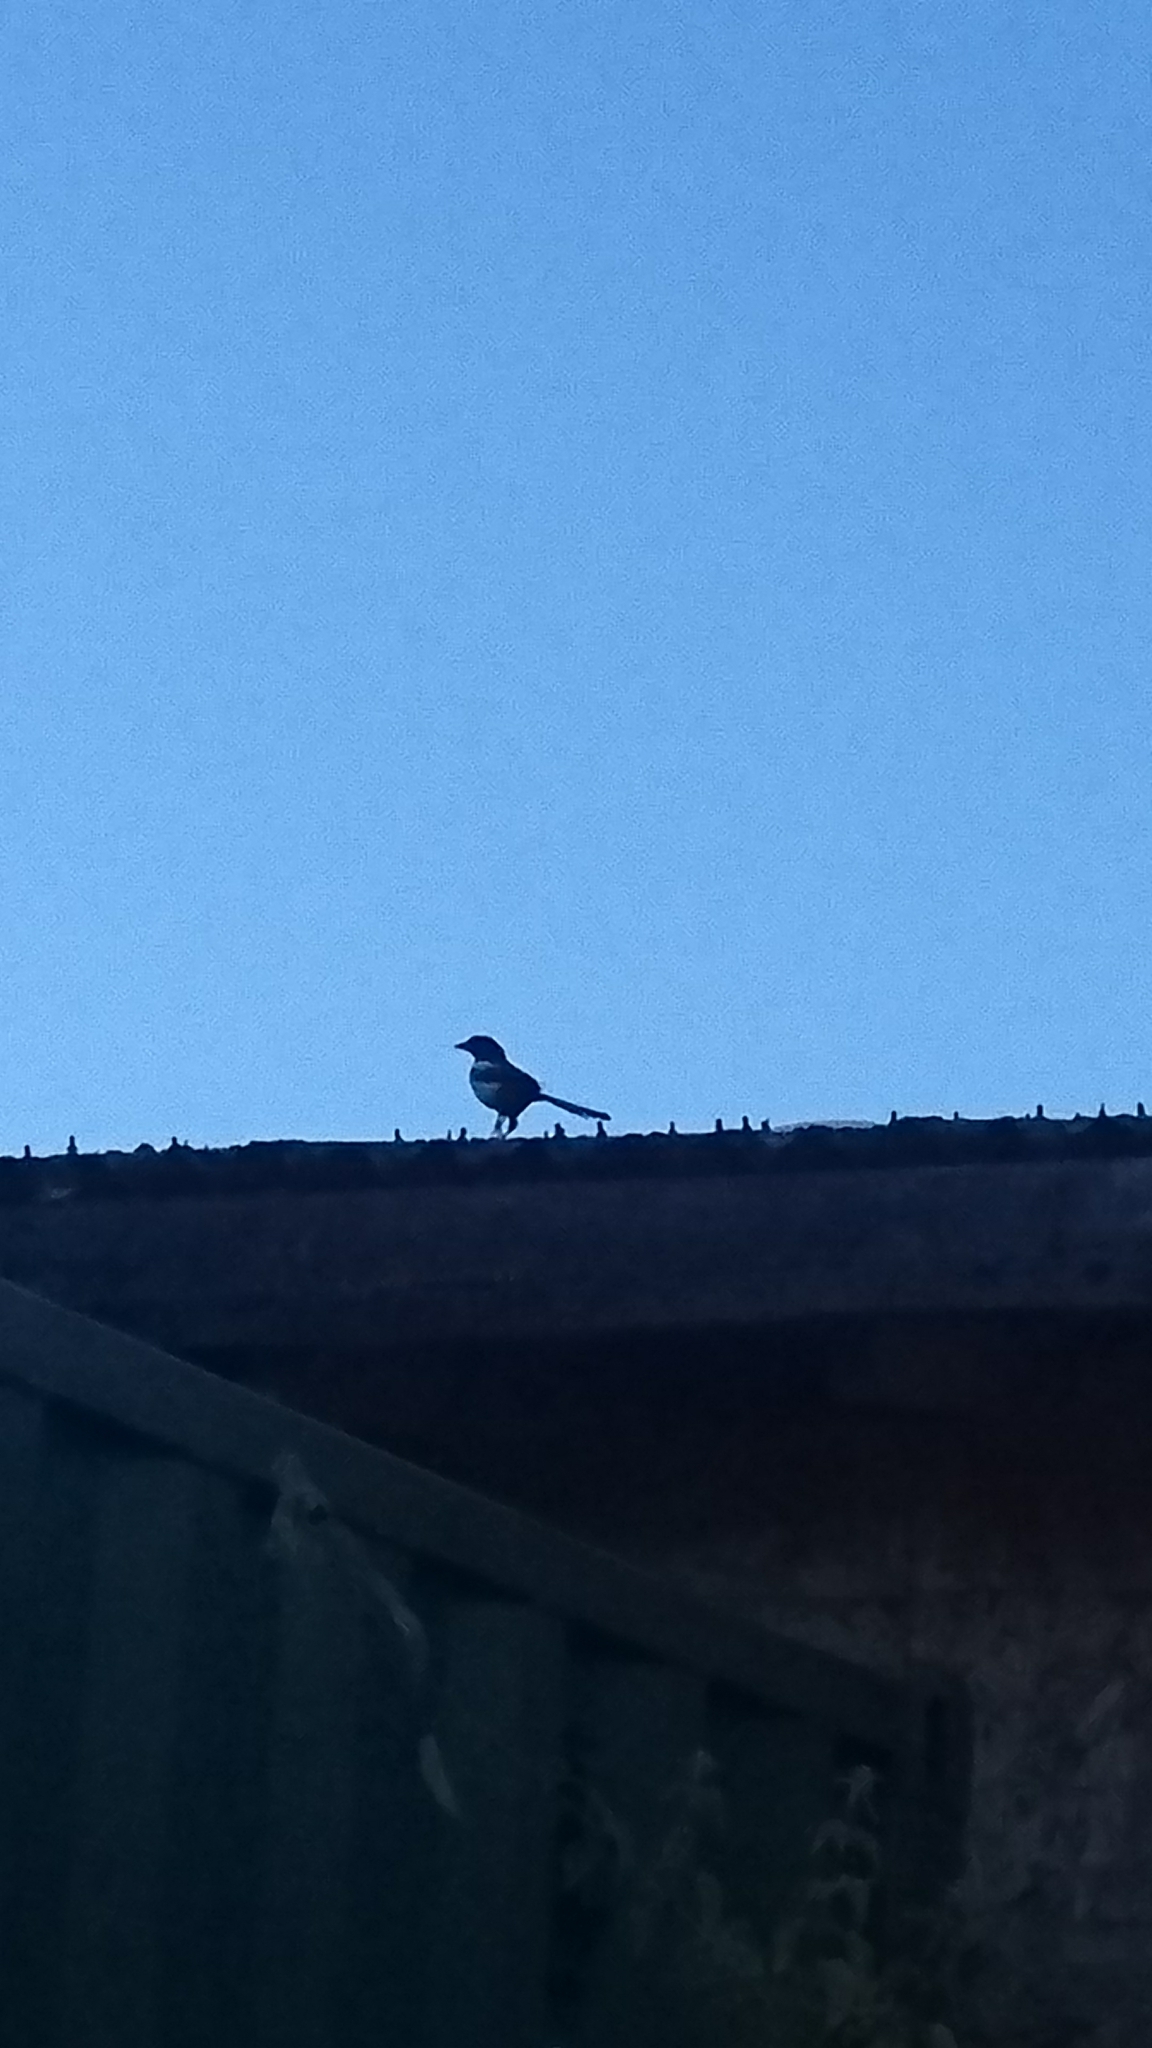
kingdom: Animalia
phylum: Chordata
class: Aves
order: Passeriformes
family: Corvidae
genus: Pica
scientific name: Pica pica
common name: Eurasian magpie
